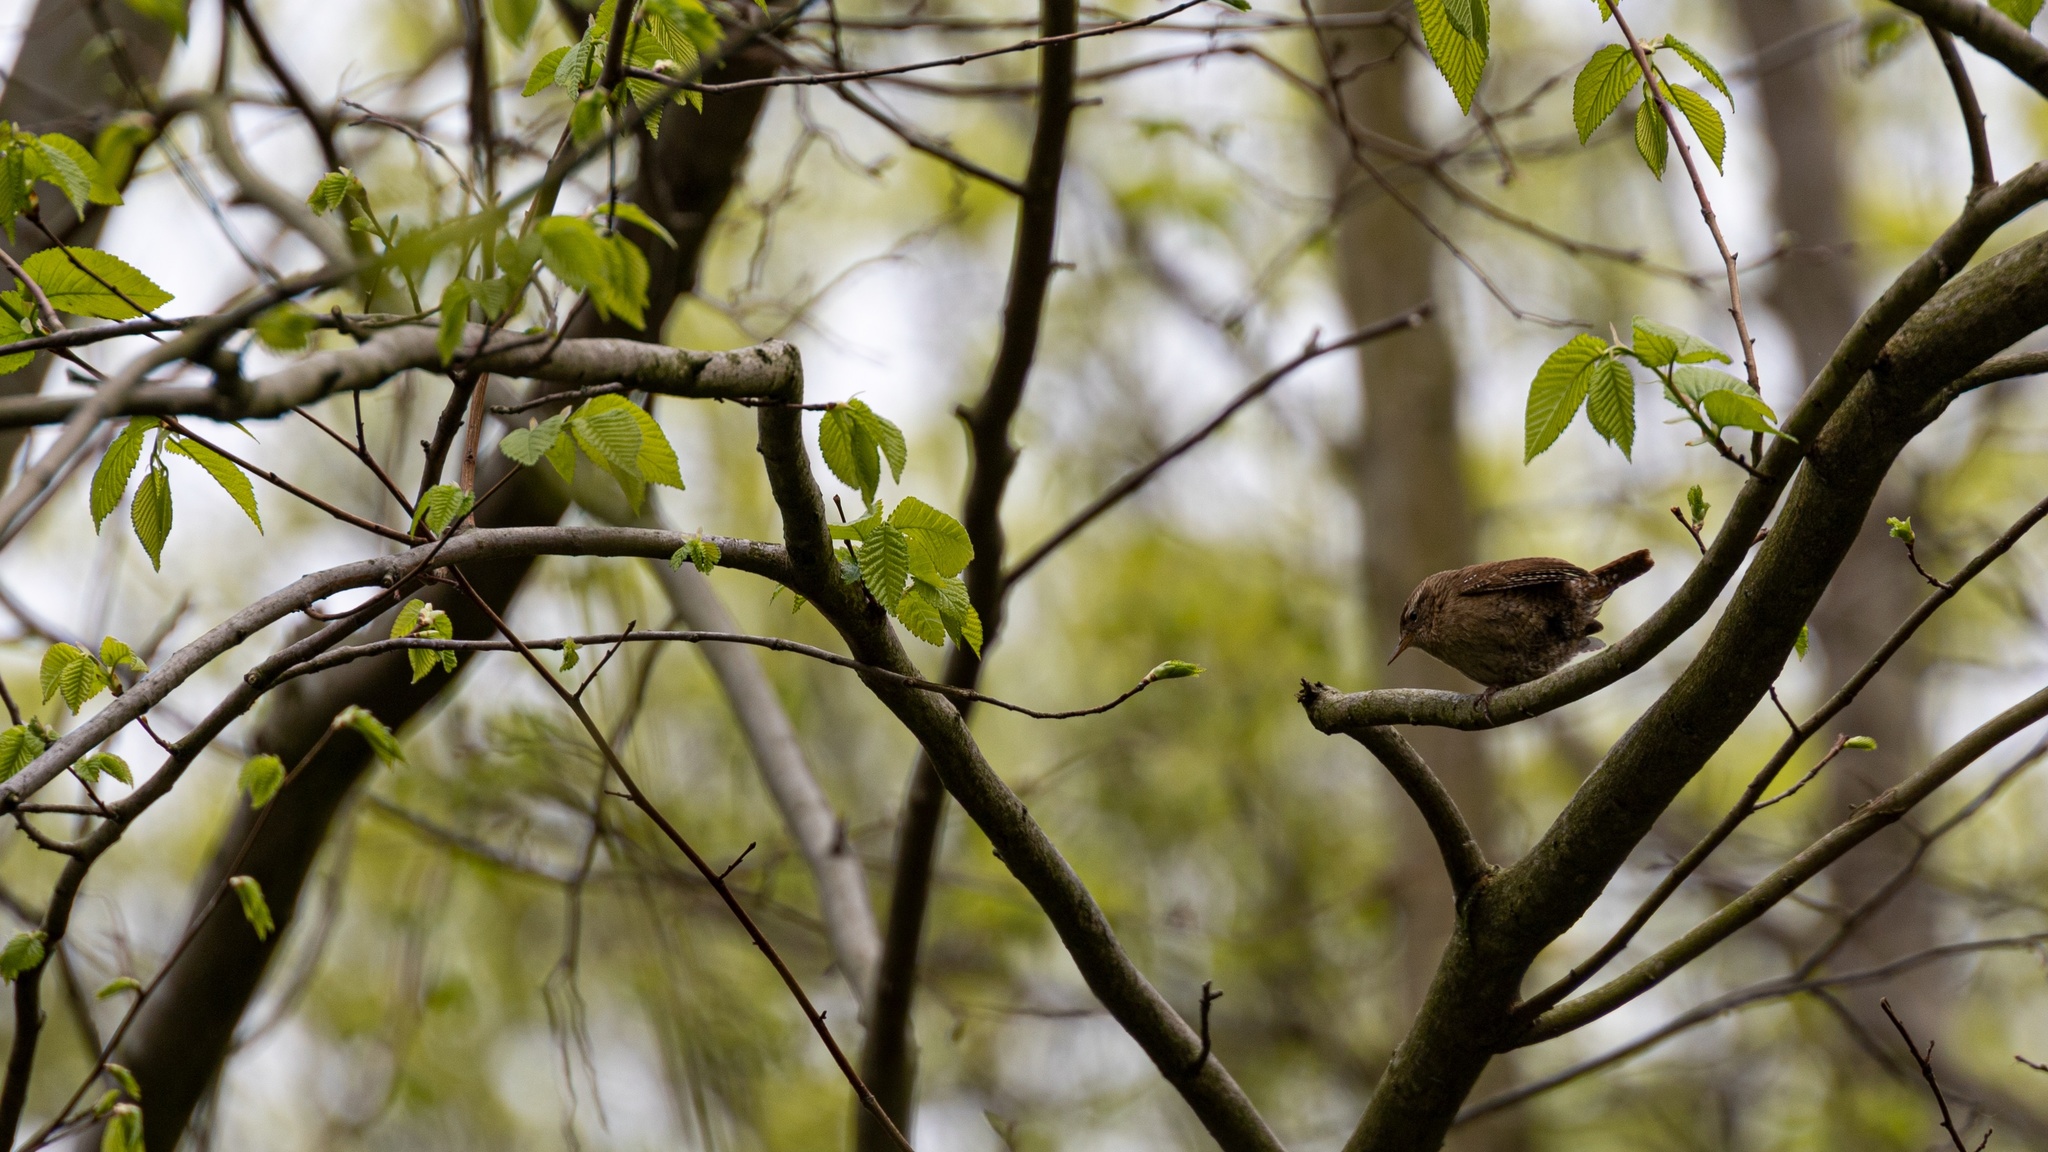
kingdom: Animalia
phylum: Chordata
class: Aves
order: Passeriformes
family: Troglodytidae
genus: Troglodytes
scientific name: Troglodytes troglodytes
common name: Eurasian wren
